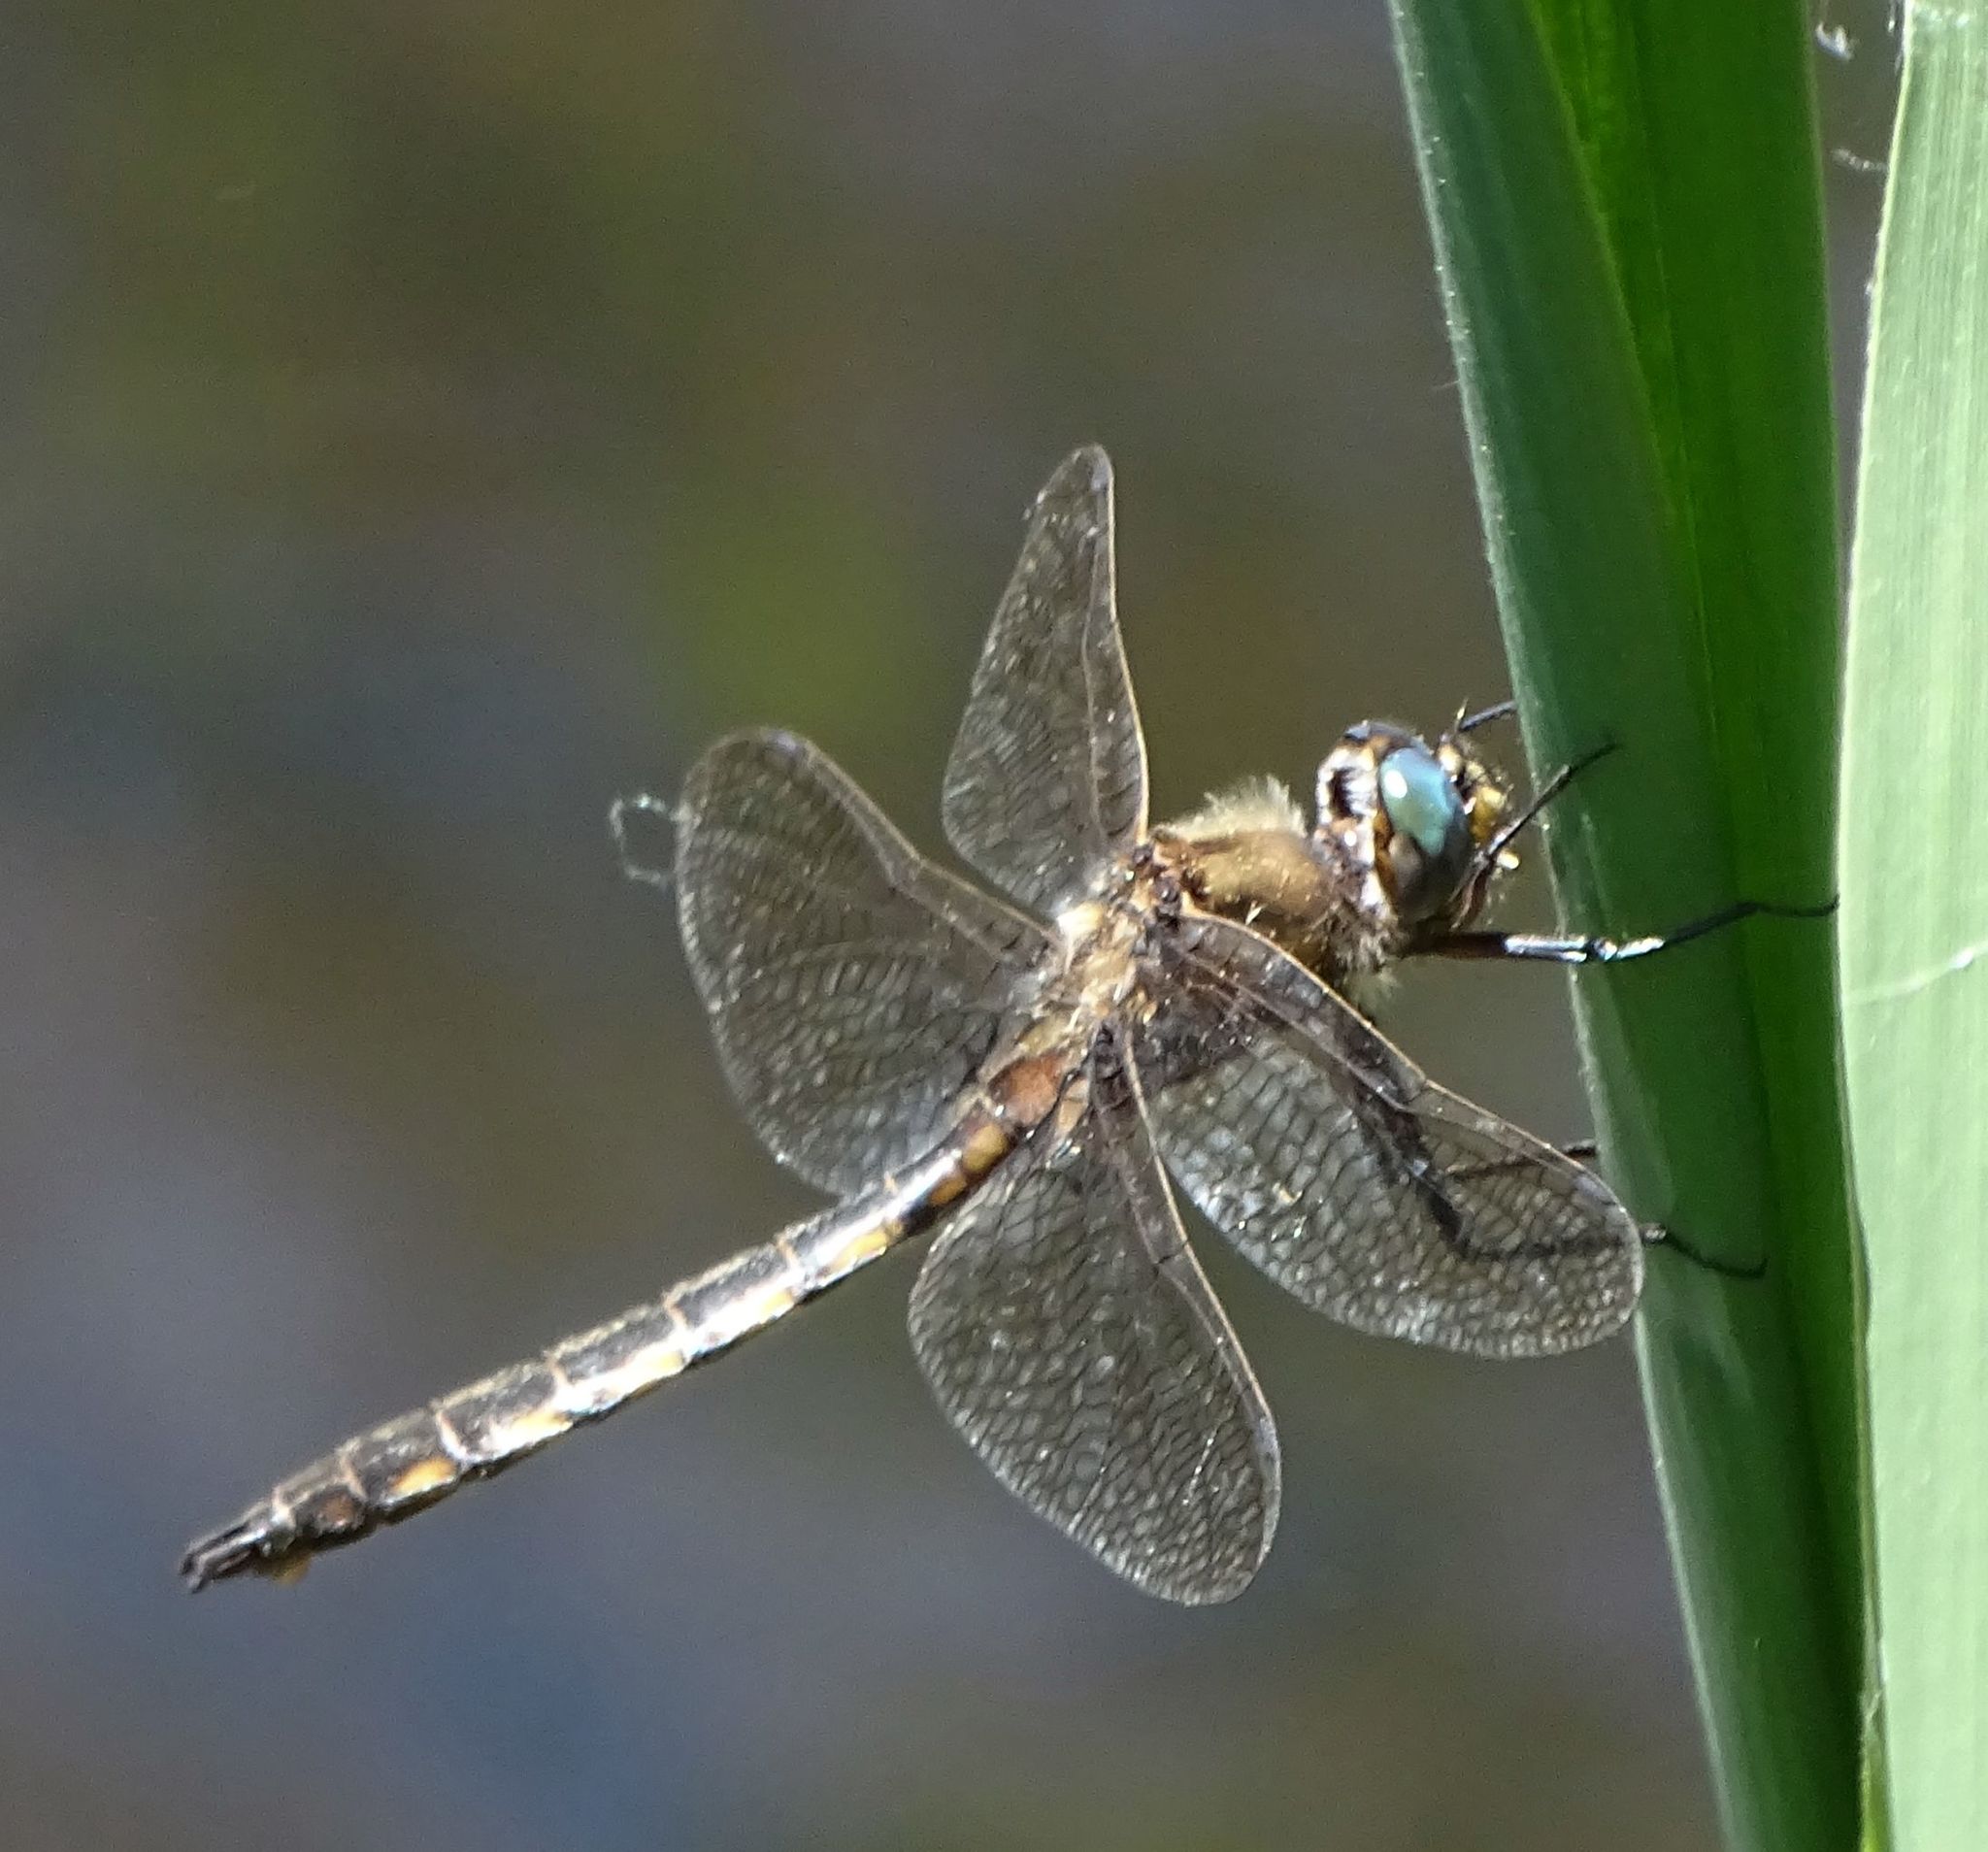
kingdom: Animalia
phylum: Arthropoda
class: Insecta
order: Odonata
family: Corduliidae
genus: Epitheca
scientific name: Epitheca canis
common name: Beaverpond baskettail
